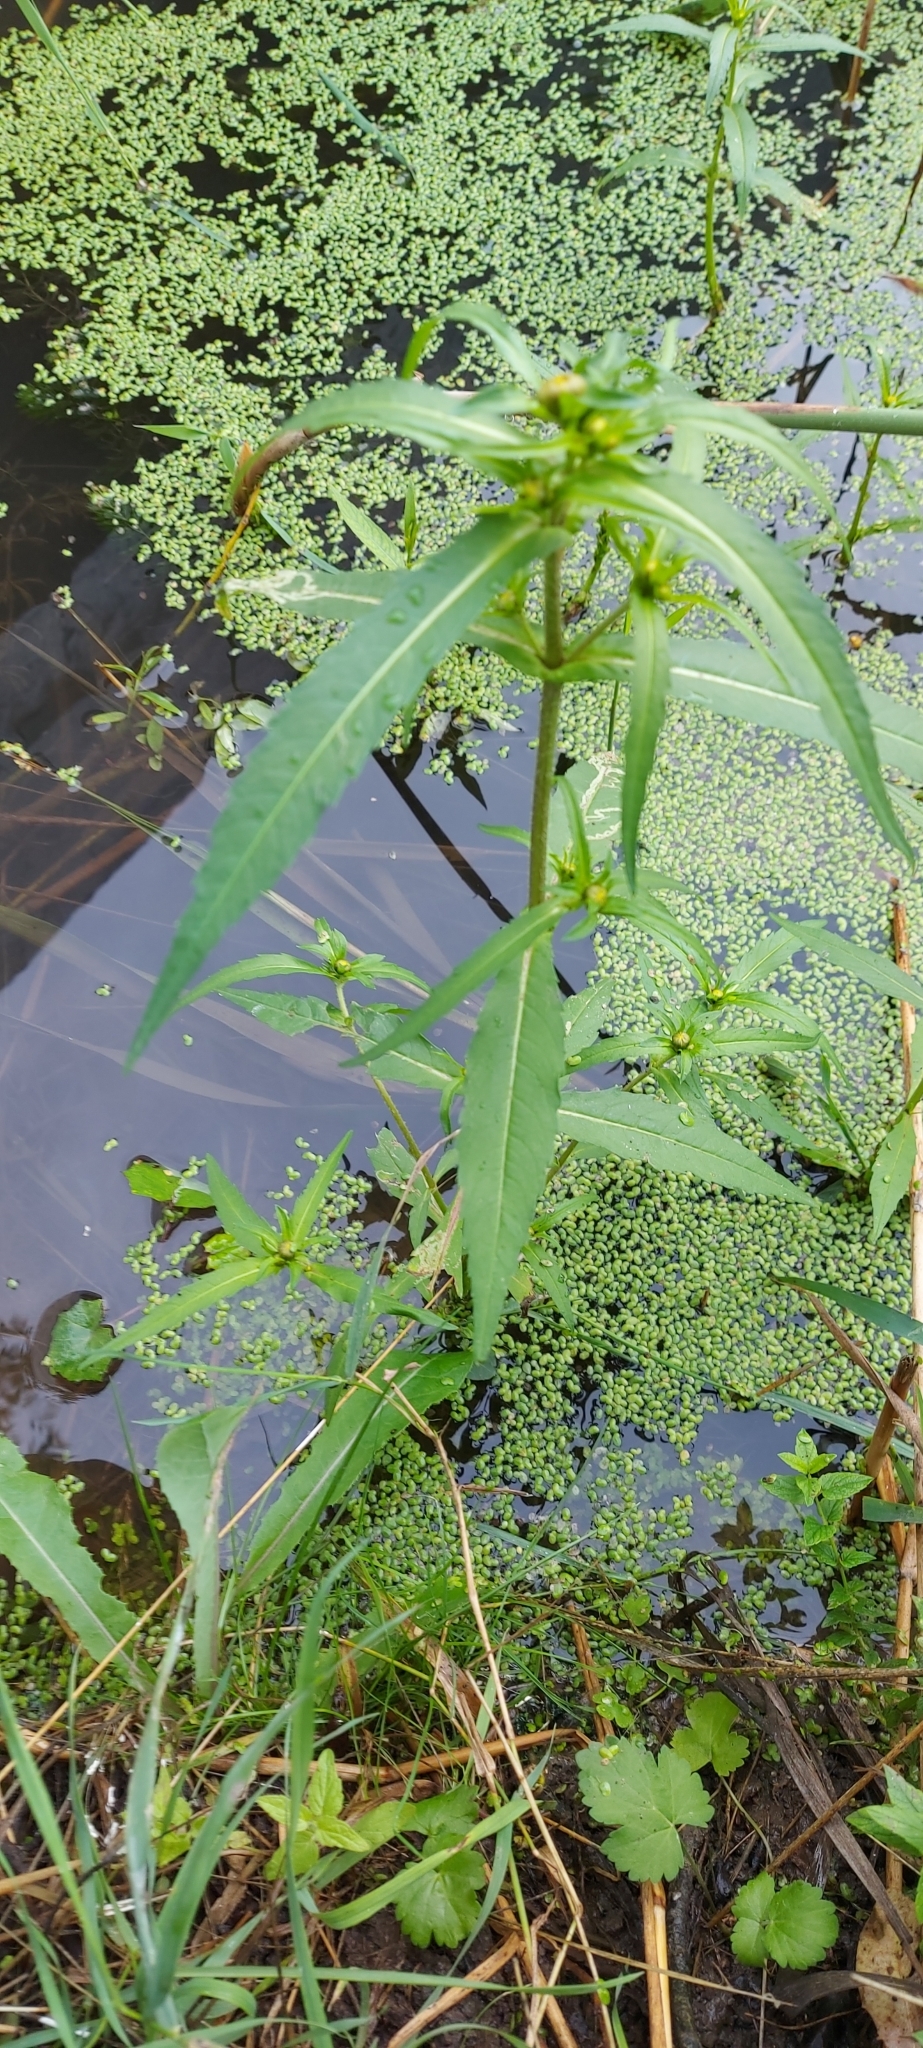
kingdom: Plantae
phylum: Tracheophyta
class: Magnoliopsida
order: Asterales
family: Asteraceae
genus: Bidens
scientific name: Bidens cernua
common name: Nodding bur-marigold
